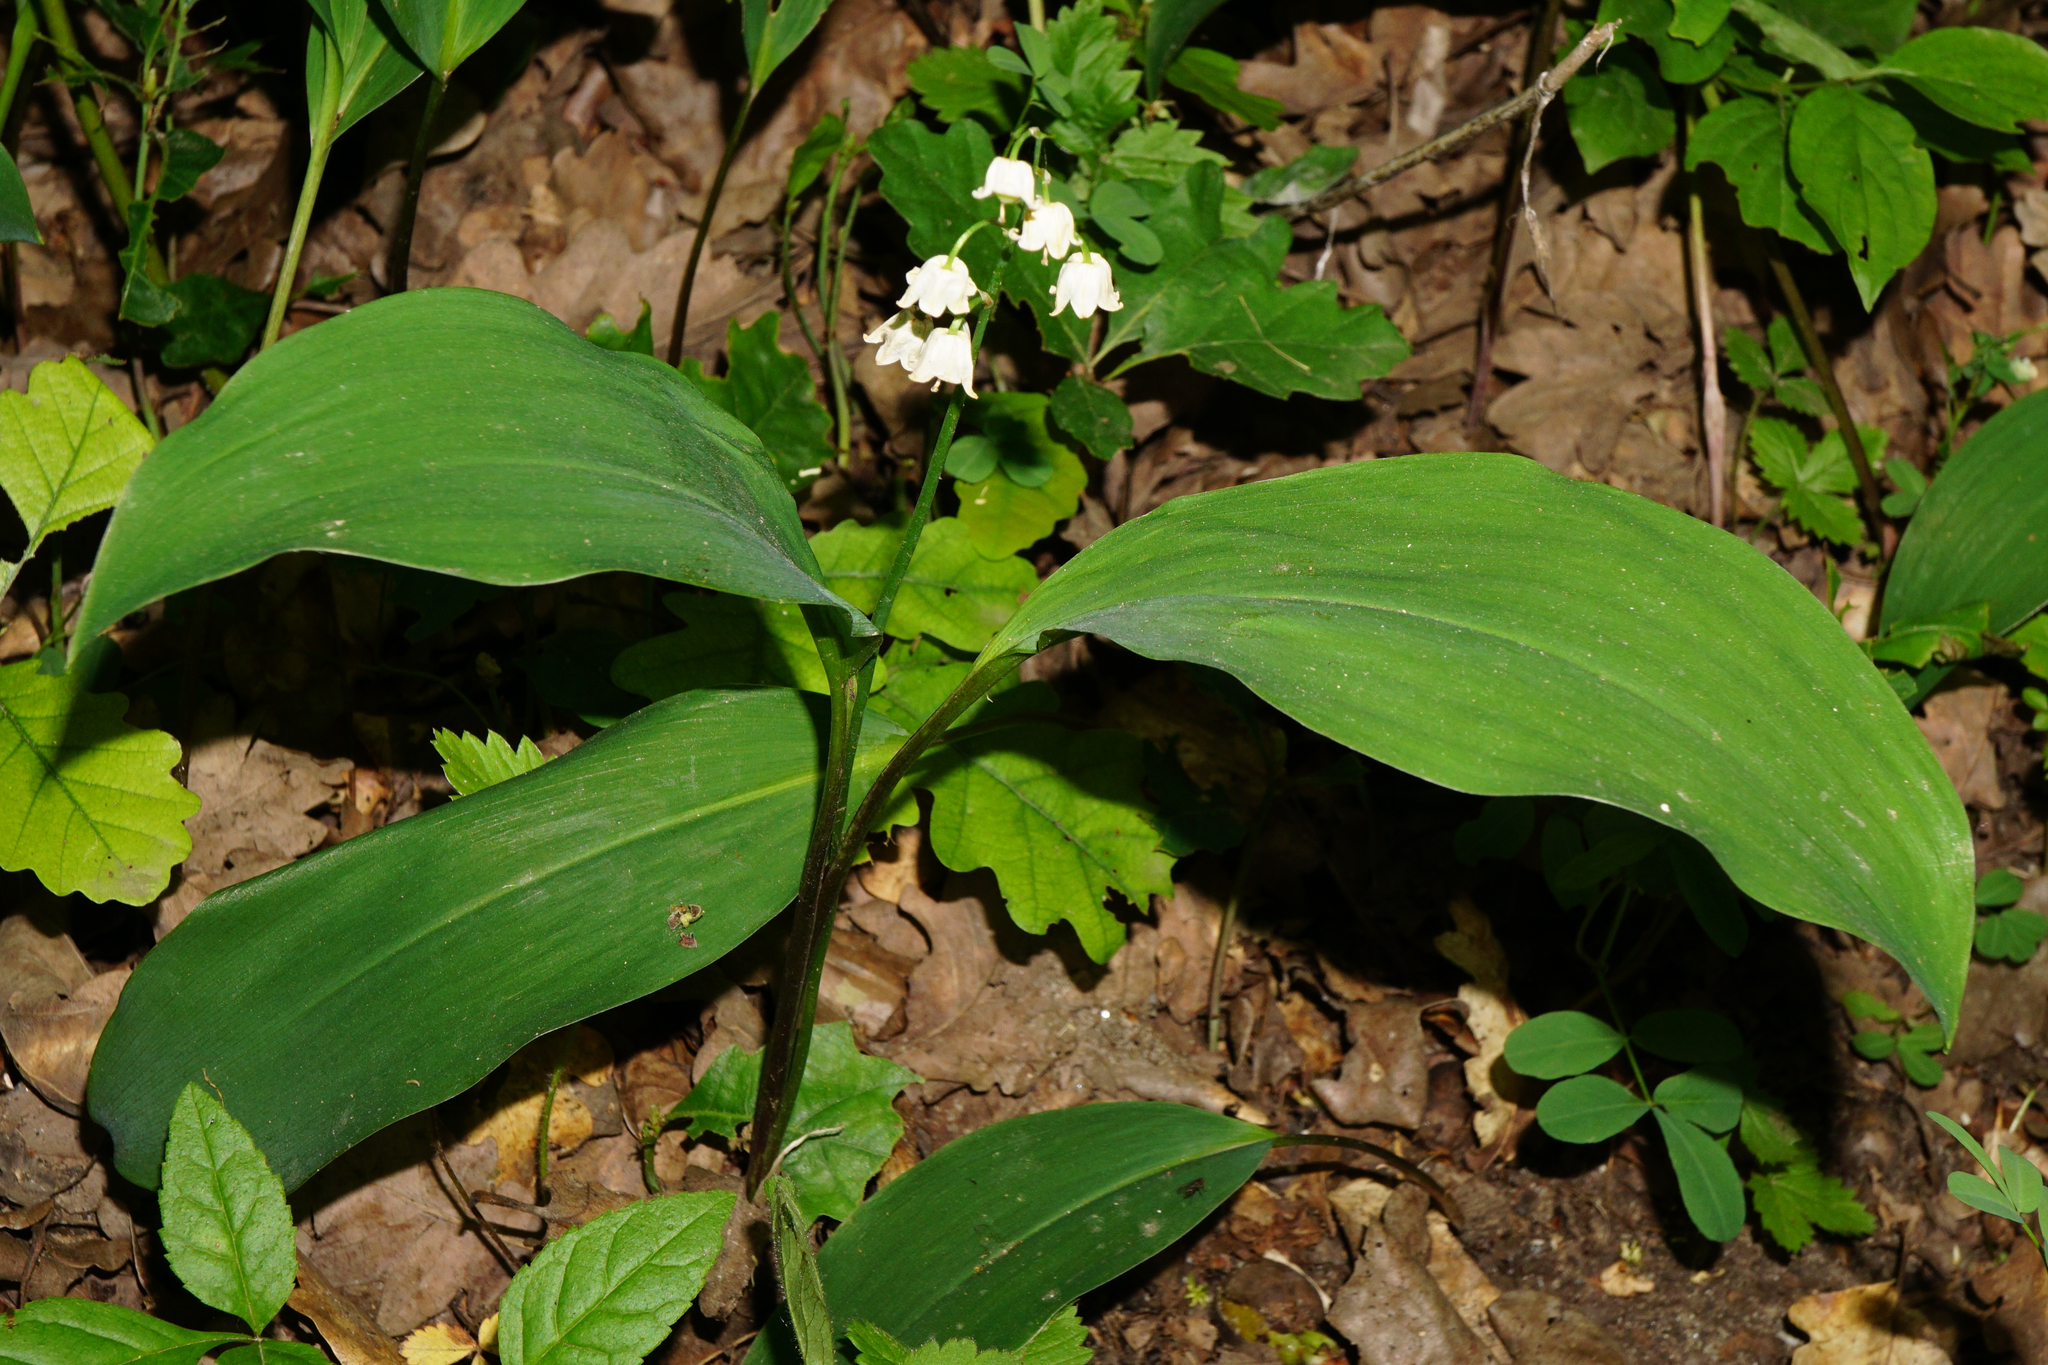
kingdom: Plantae
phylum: Tracheophyta
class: Liliopsida
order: Asparagales
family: Asparagaceae
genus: Convallaria
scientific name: Convallaria majalis
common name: Lily-of-the-valley
